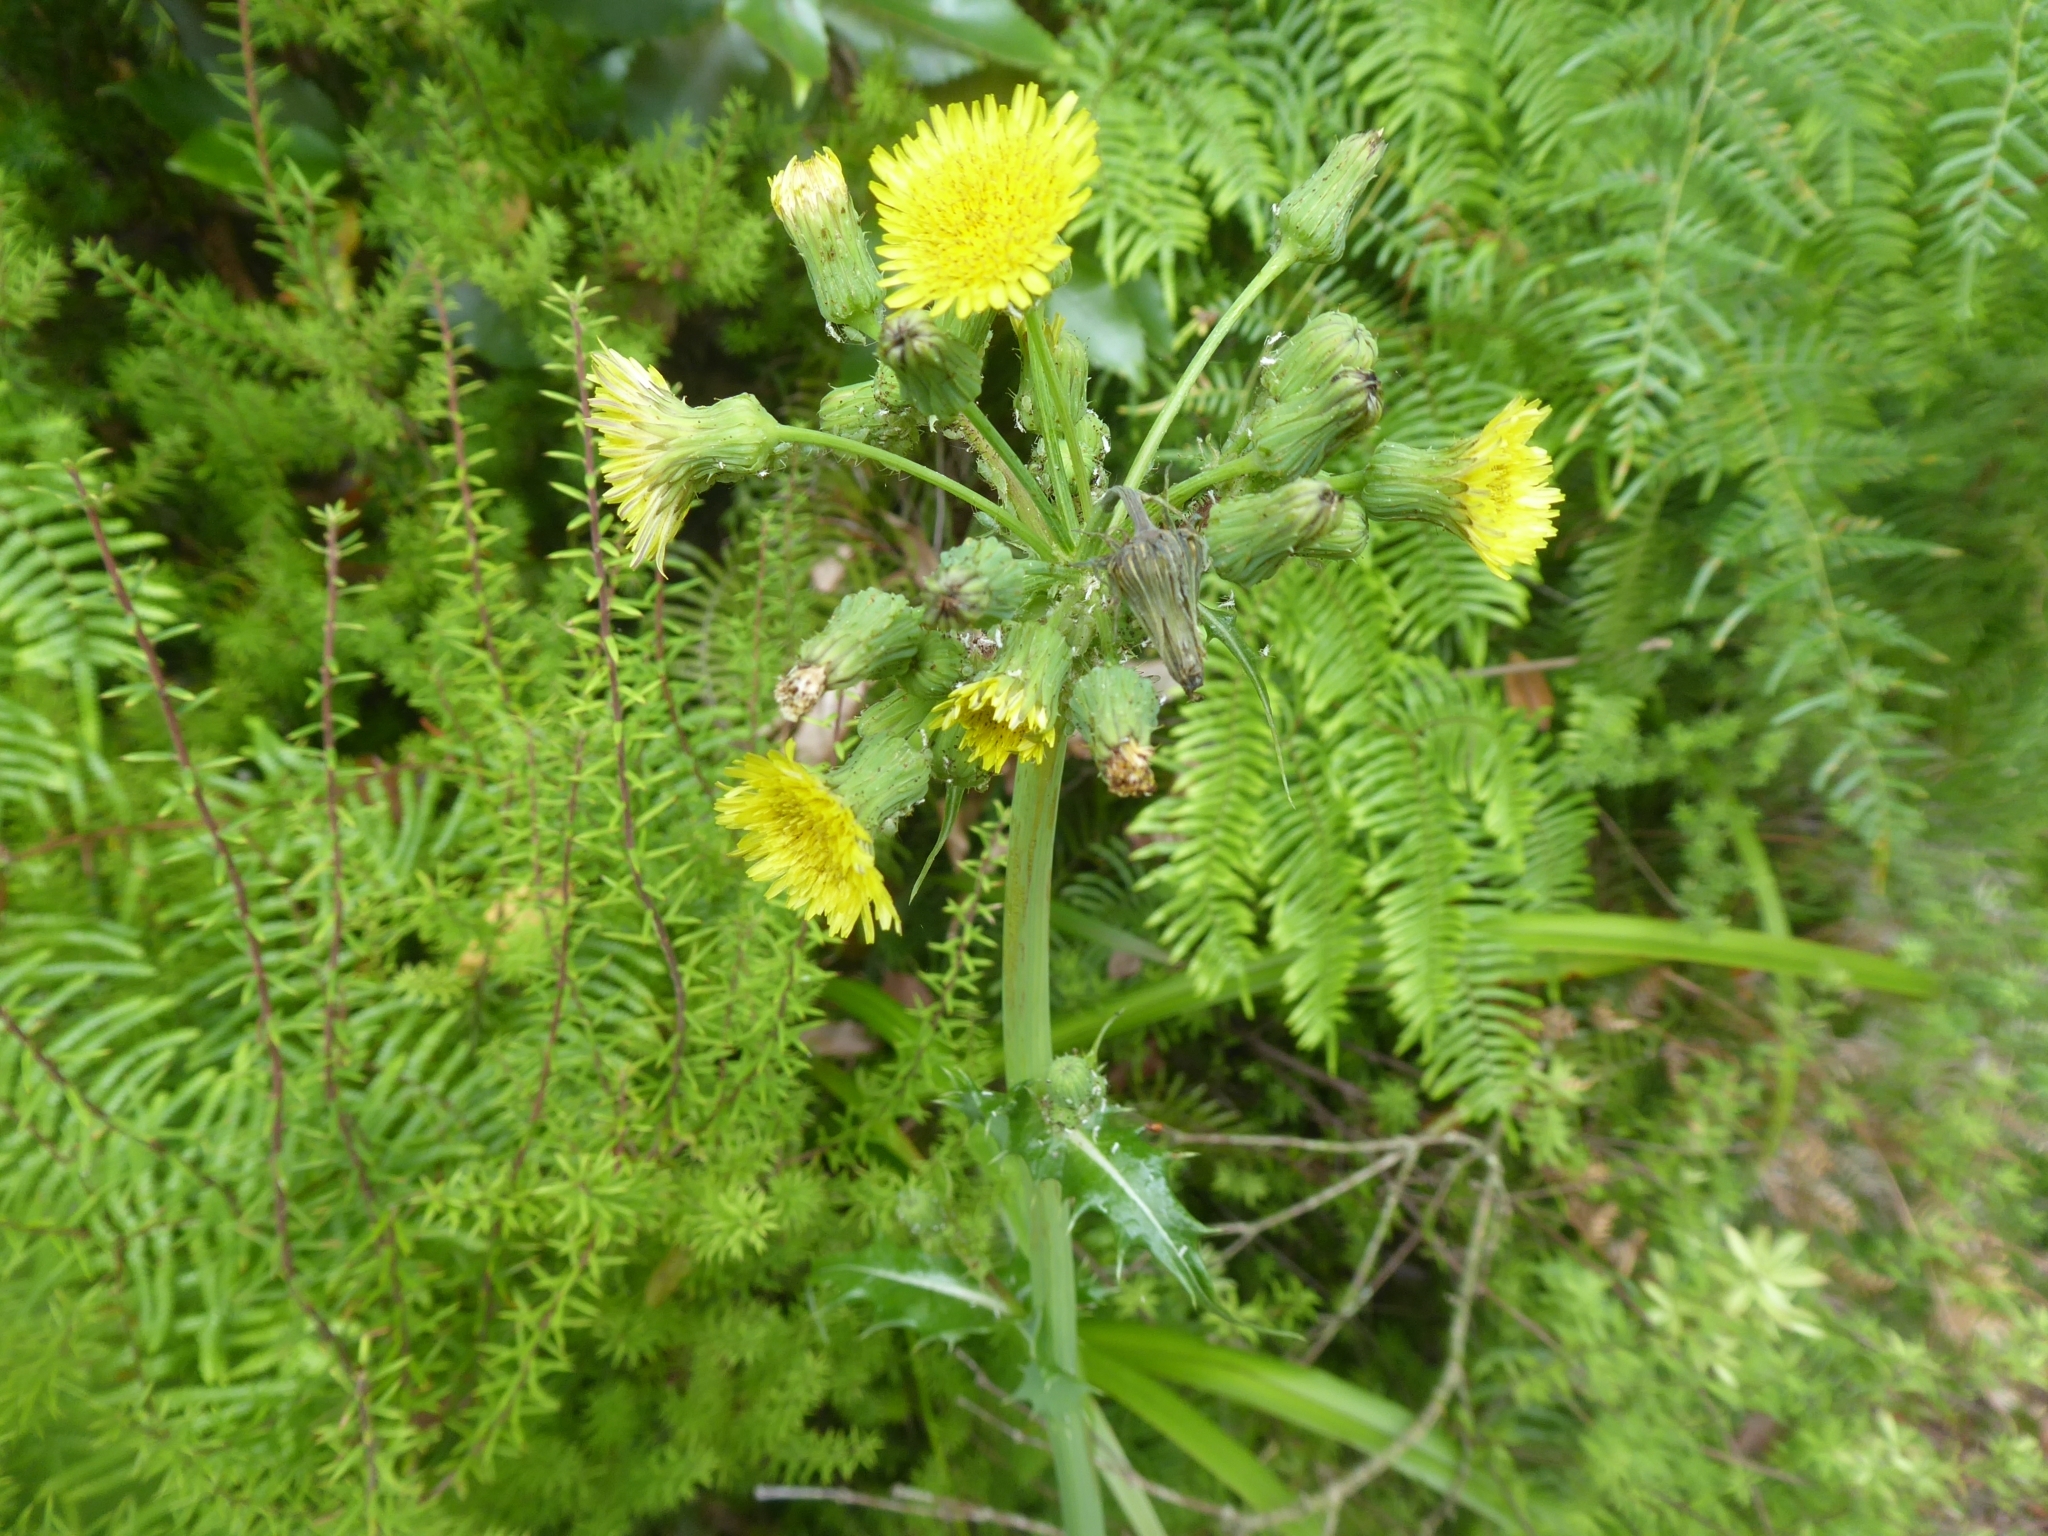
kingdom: Plantae
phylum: Tracheophyta
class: Magnoliopsida
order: Asterales
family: Asteraceae
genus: Sonchus
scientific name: Sonchus oleraceus
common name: Common sowthistle
